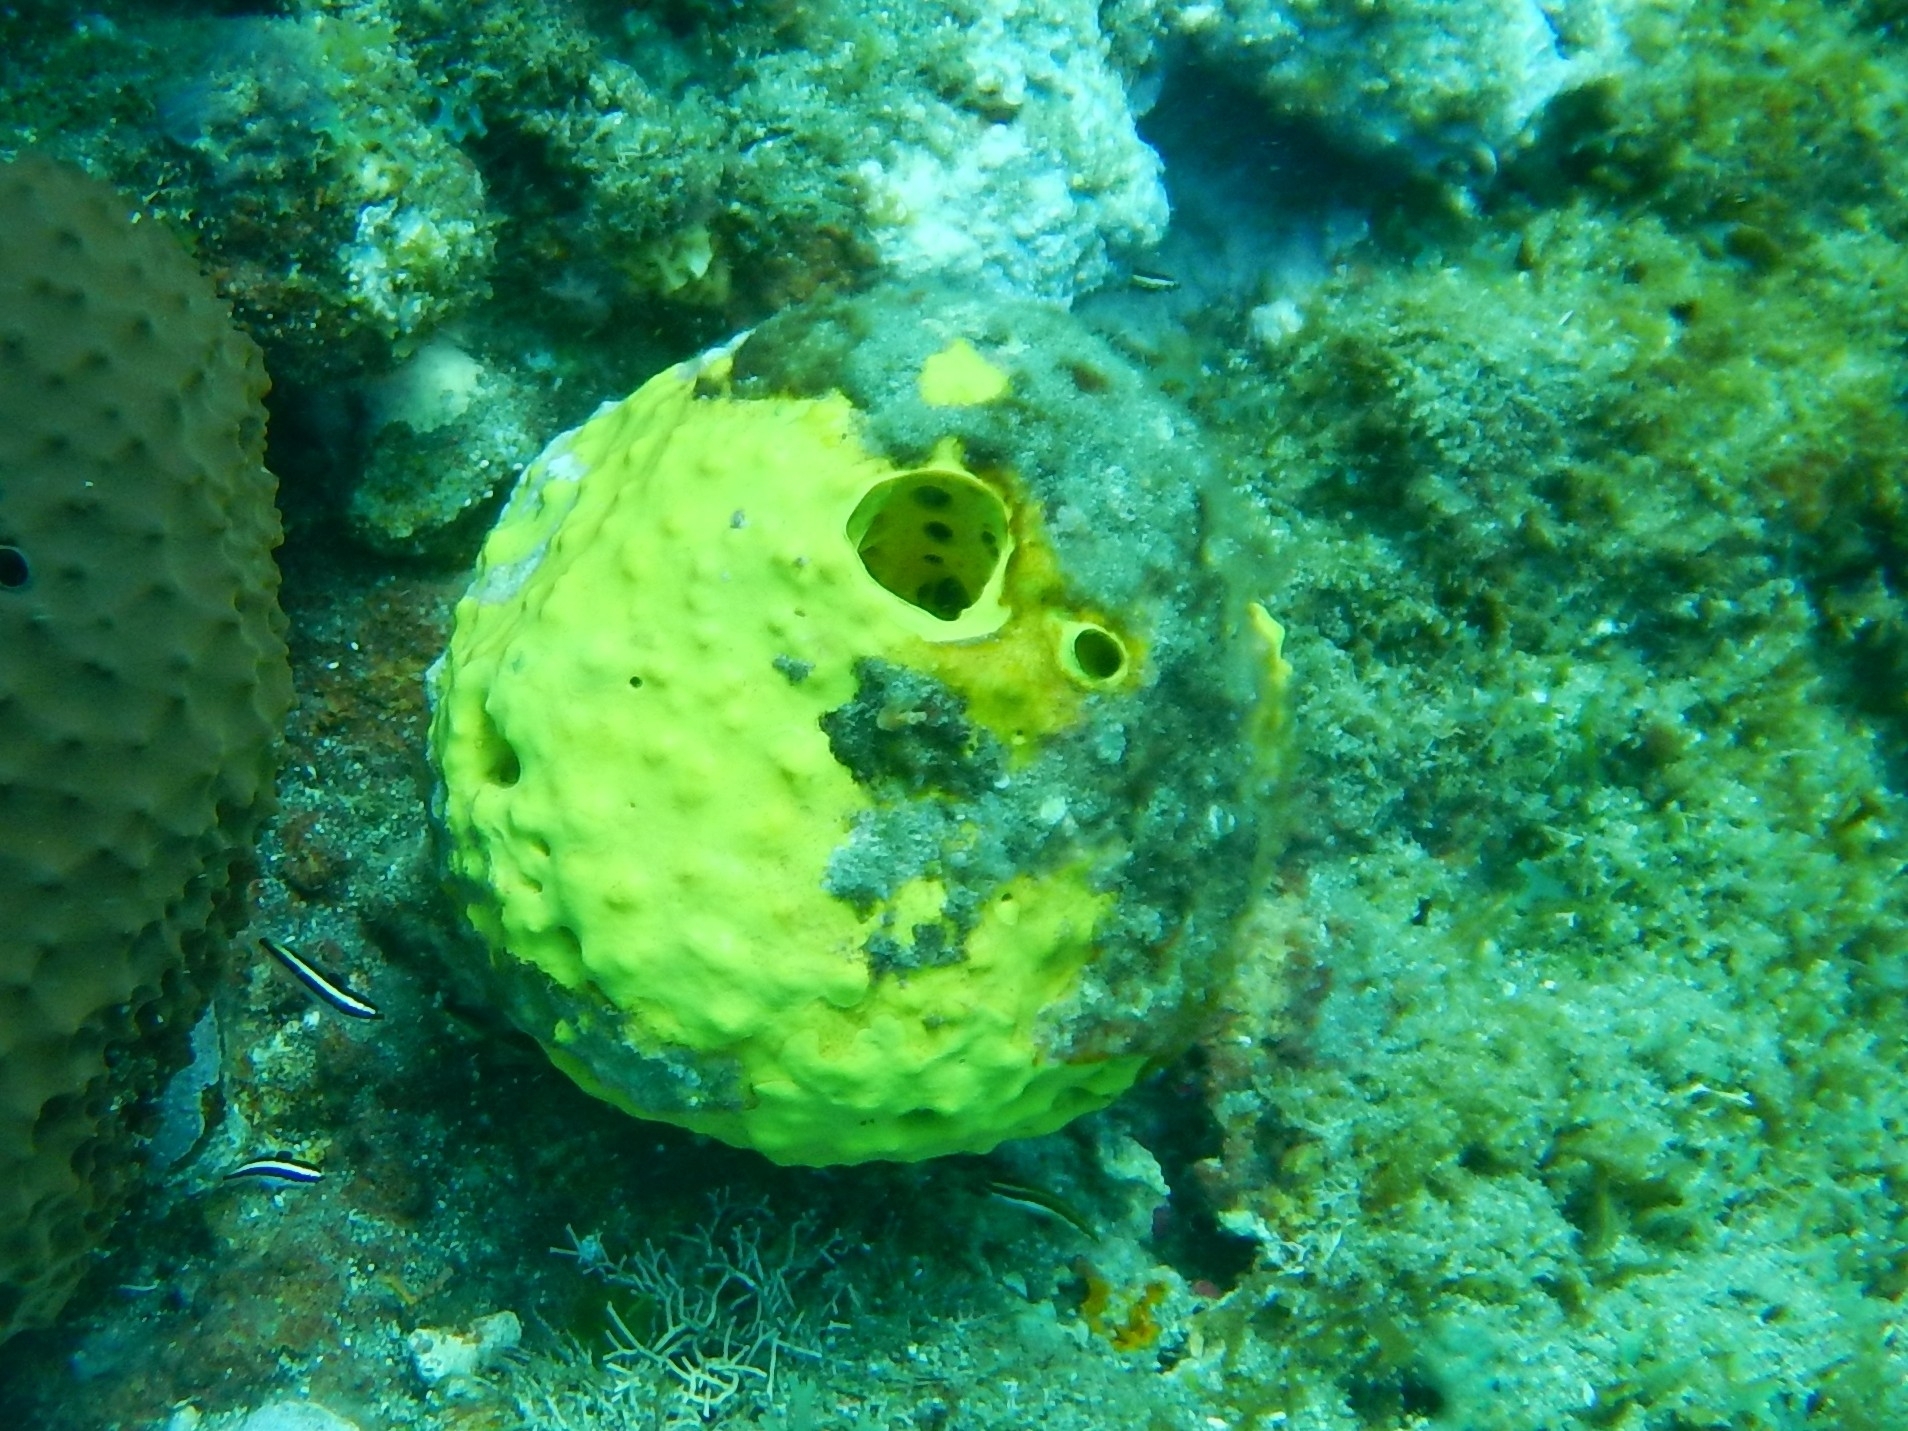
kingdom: Animalia
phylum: Porifera
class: Demospongiae
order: Verongiida
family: Aplysinidae
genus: Aiolochroia
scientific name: Aiolochroia crassa
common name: Branching tube sponge
